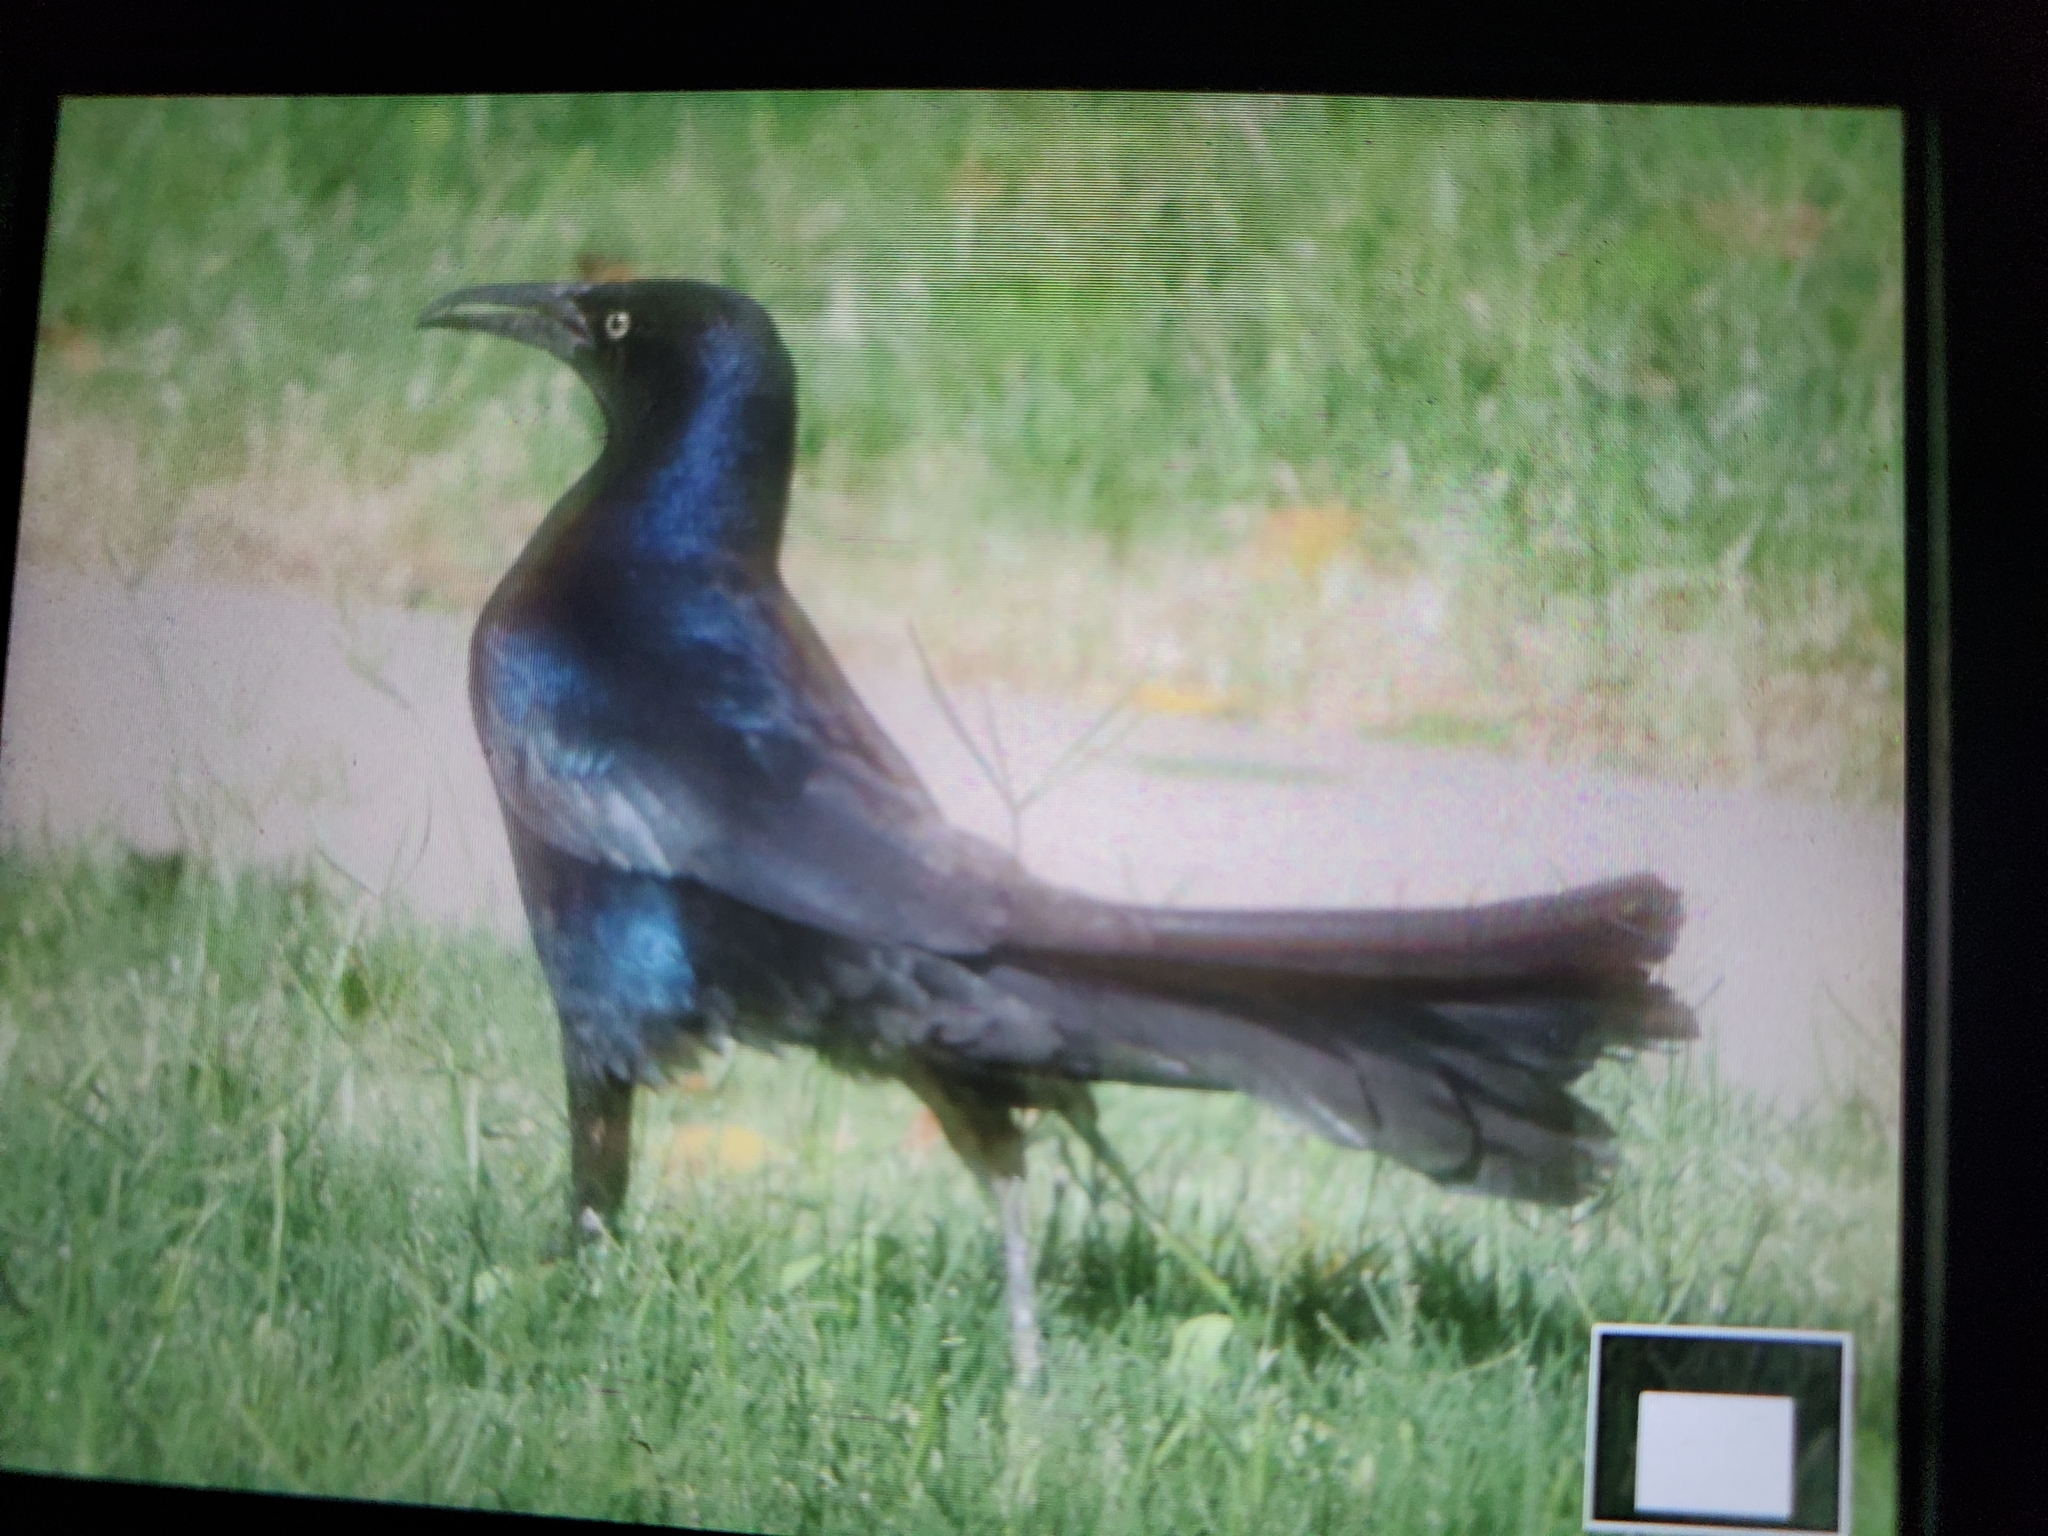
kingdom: Animalia
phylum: Chordata
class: Aves
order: Passeriformes
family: Icteridae
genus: Quiscalus
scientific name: Quiscalus mexicanus
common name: Great-tailed grackle
